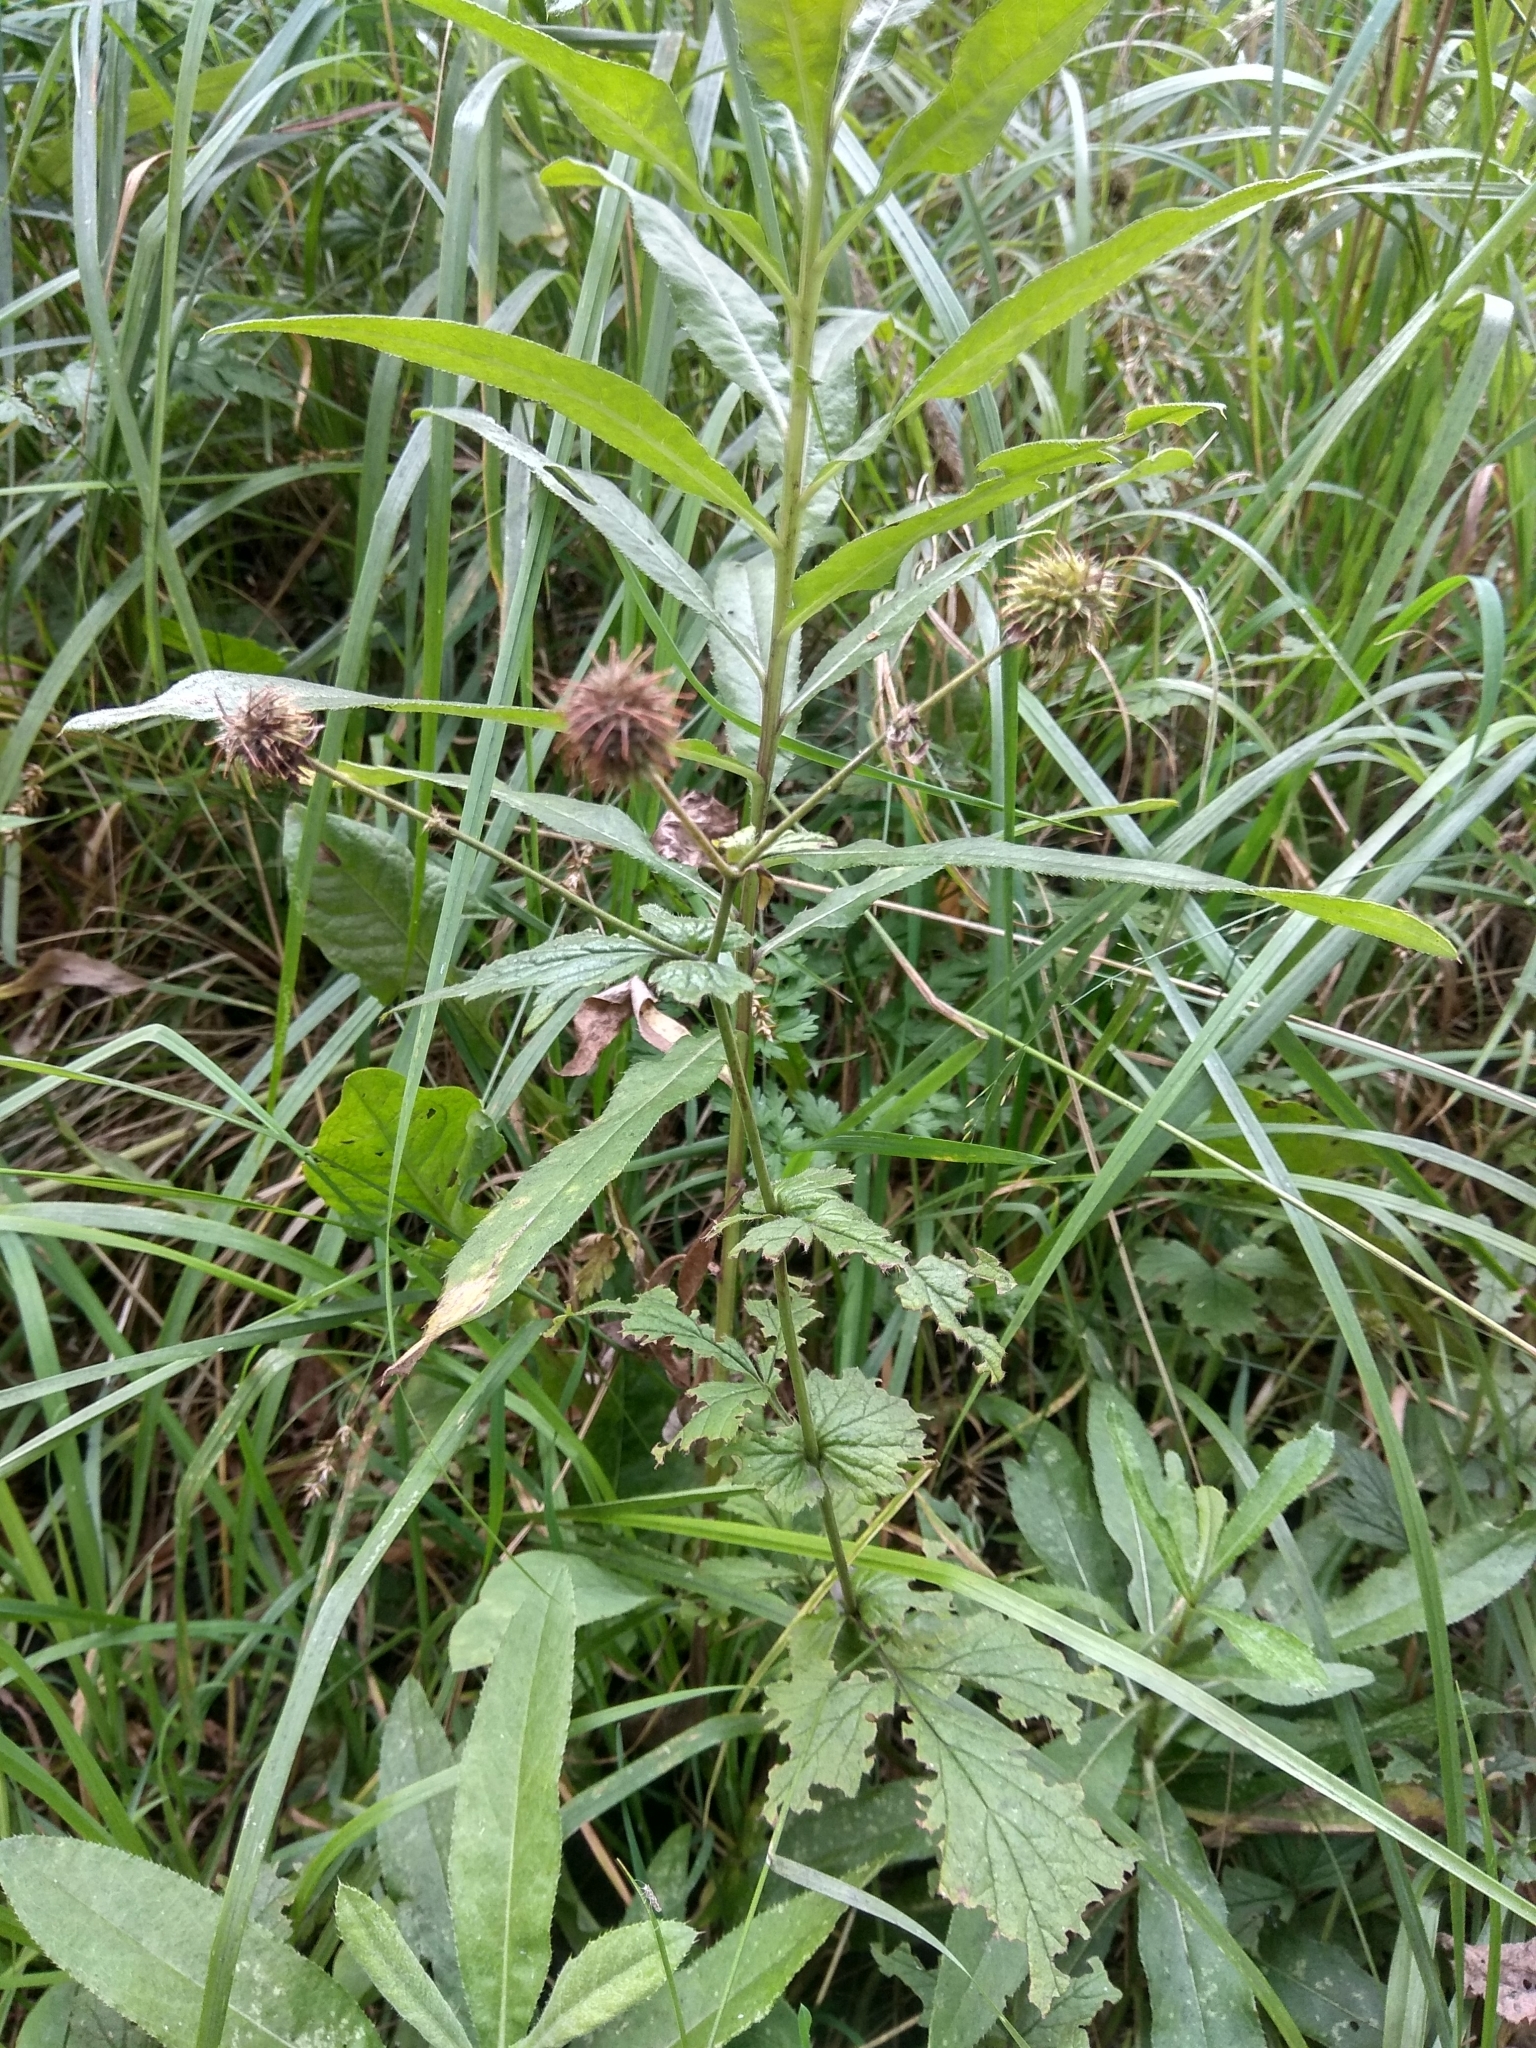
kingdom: Plantae
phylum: Tracheophyta
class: Magnoliopsida
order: Rosales
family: Rosaceae
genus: Geum
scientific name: Geum urbanum
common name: Wood avens
